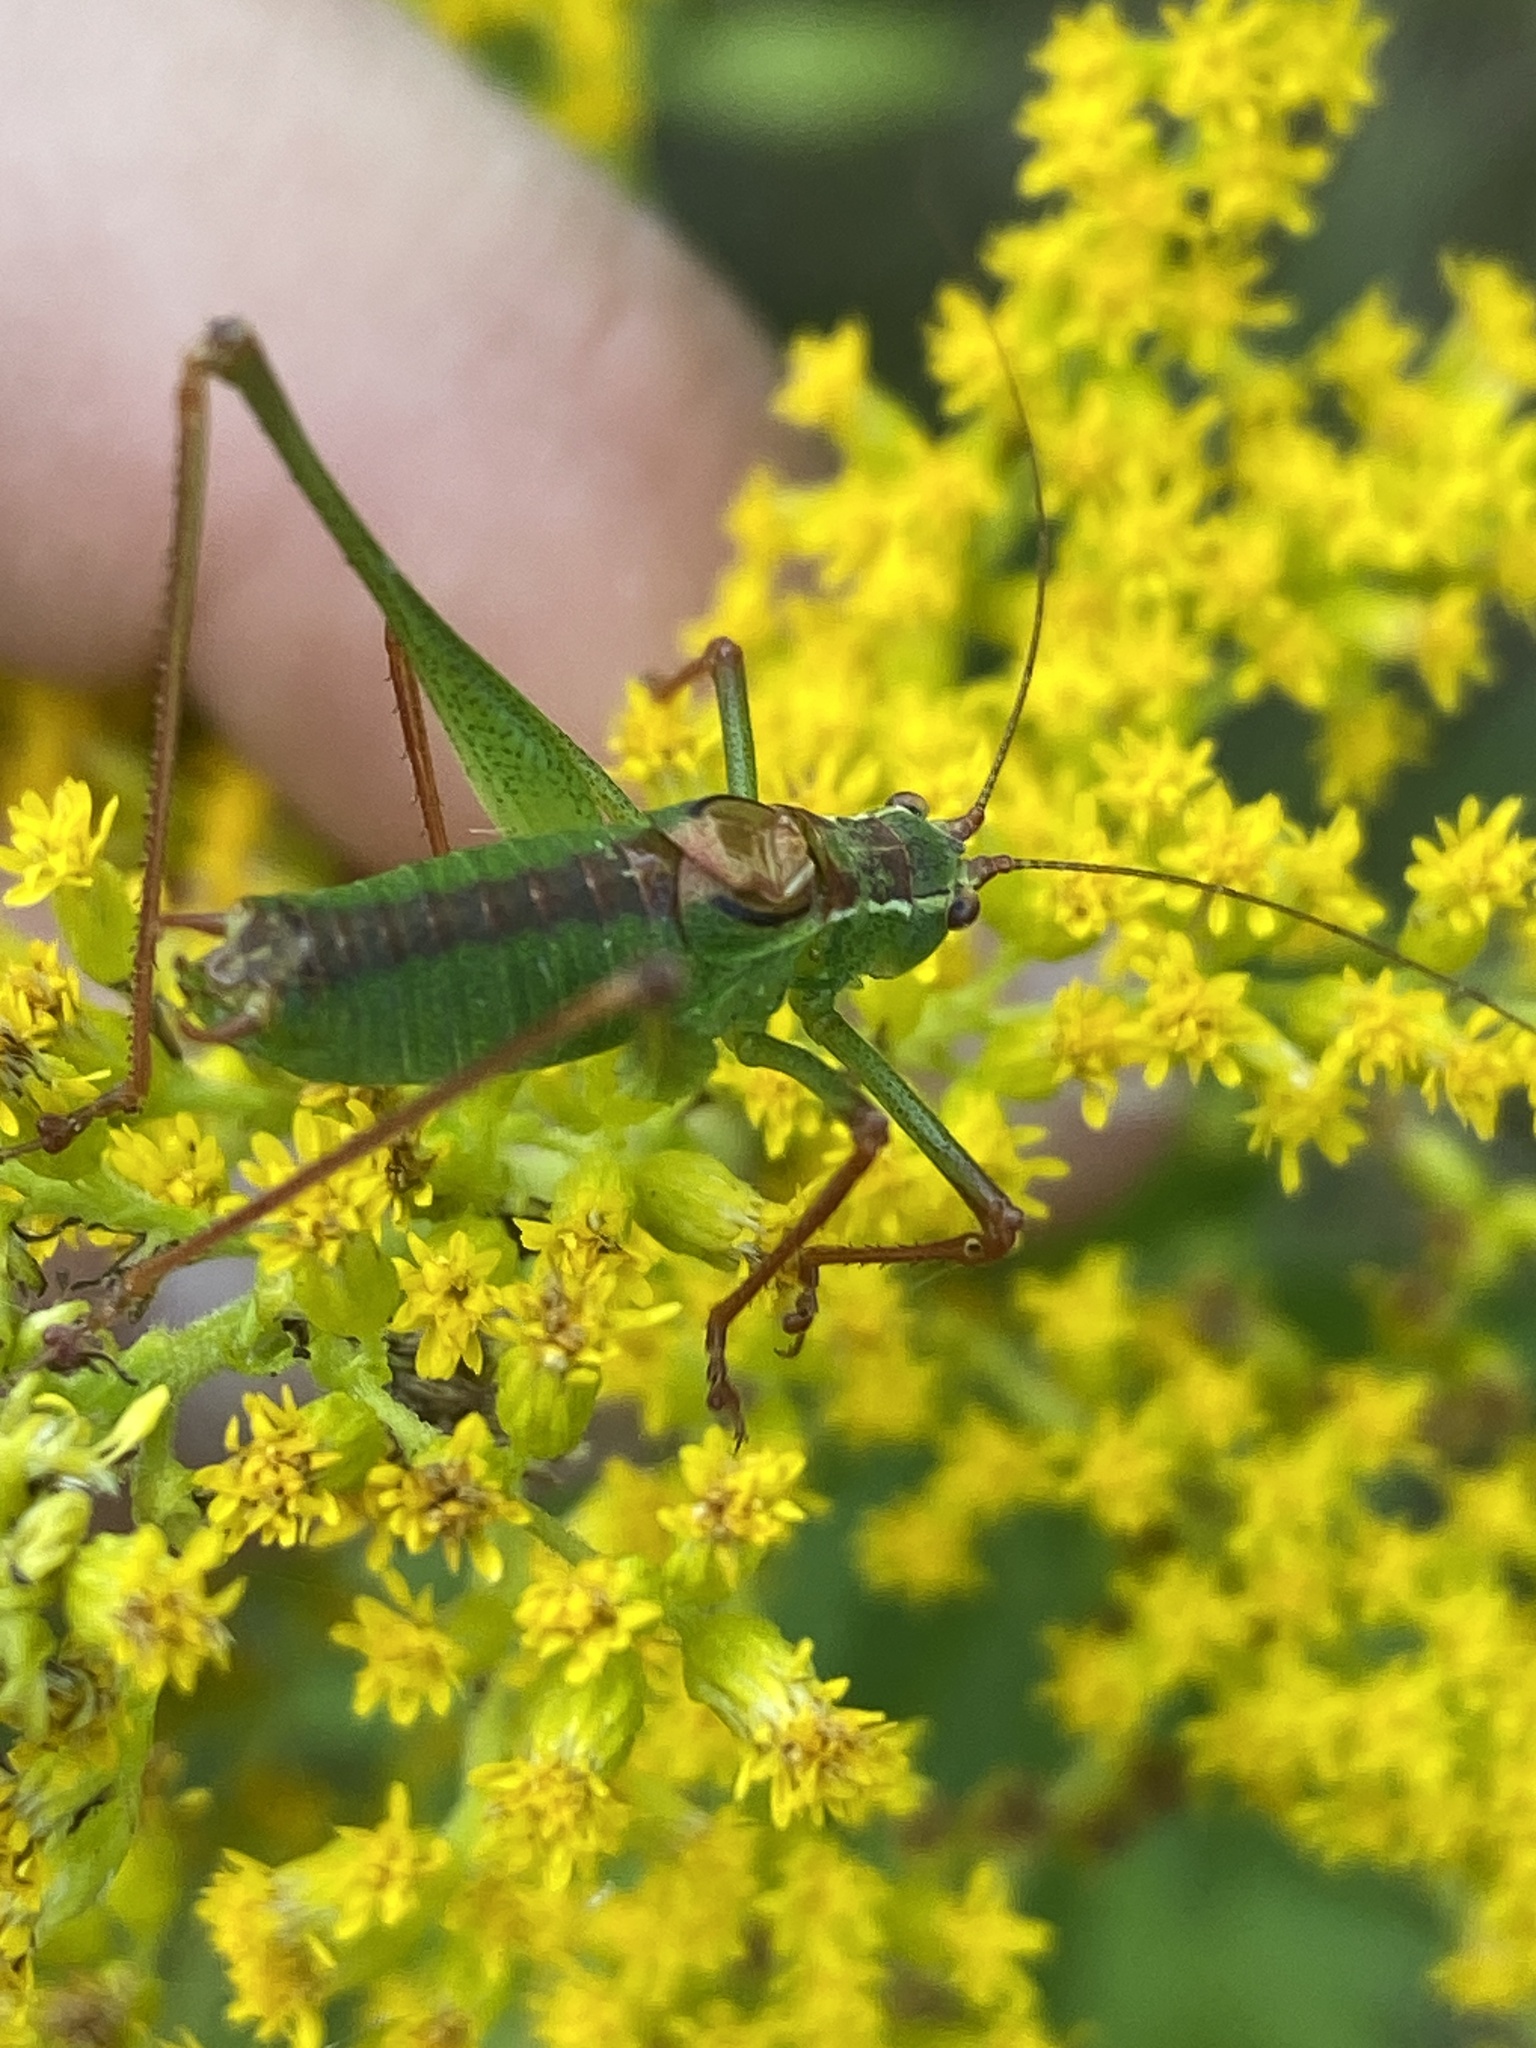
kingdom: Animalia
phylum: Arthropoda
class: Insecta
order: Orthoptera
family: Tettigoniidae
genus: Leptophyes
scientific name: Leptophyes punctatissima
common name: Speckled bush-cricket
